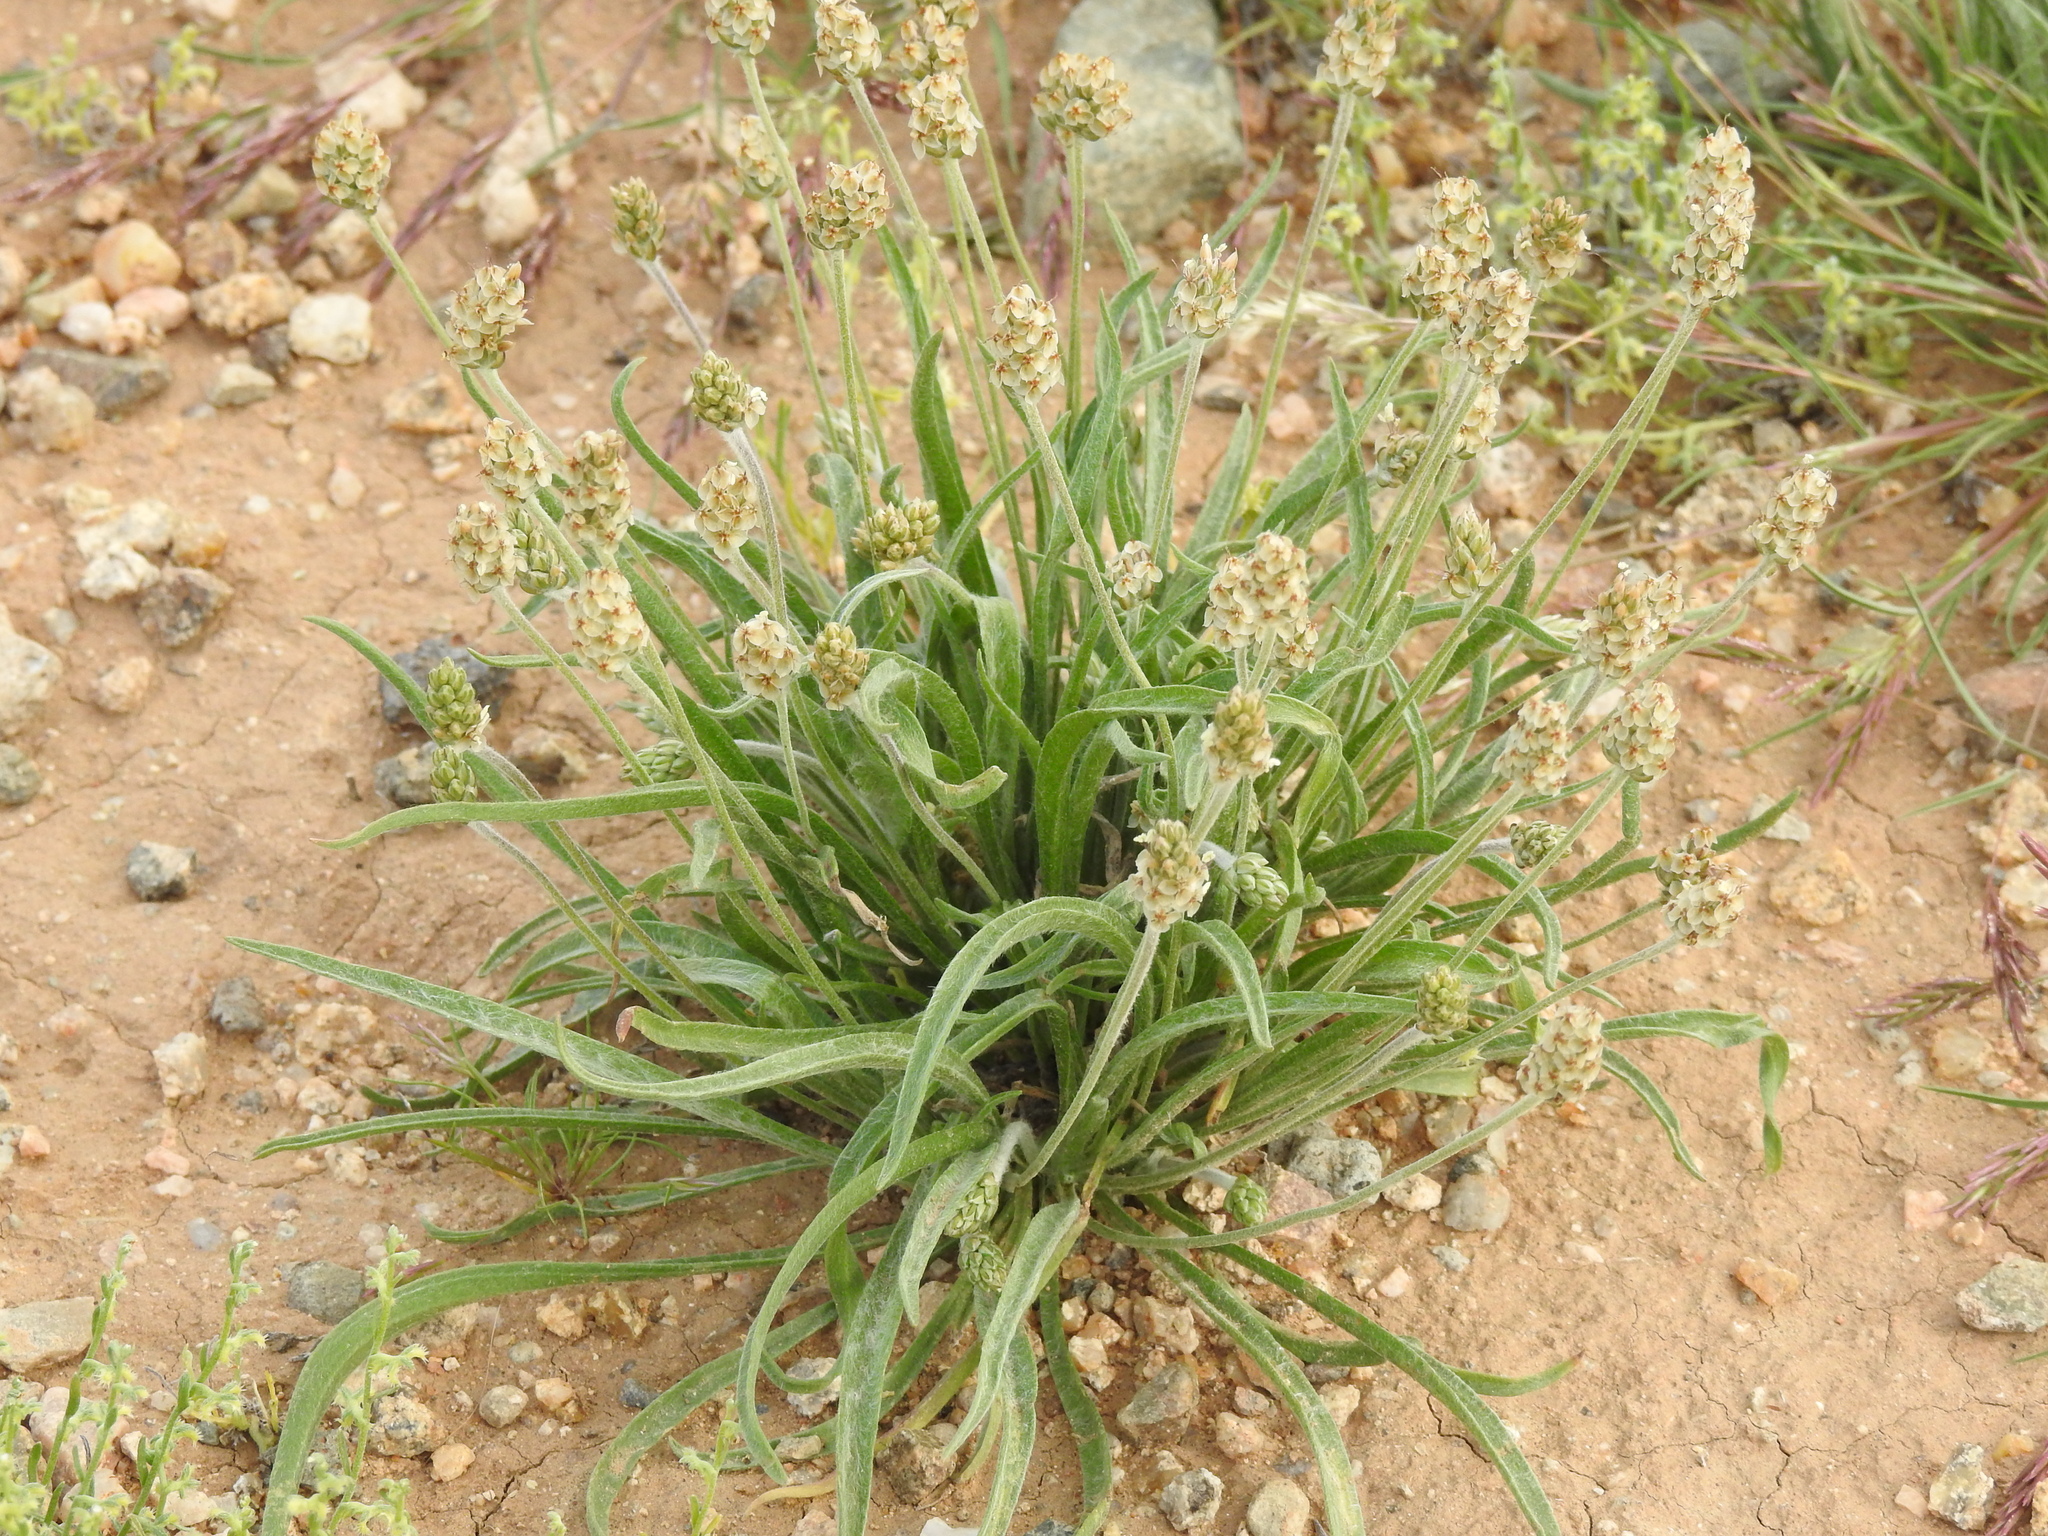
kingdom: Plantae
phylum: Tracheophyta
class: Magnoliopsida
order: Lamiales
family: Plantaginaceae
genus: Plantago
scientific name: Plantago ovata
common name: Blond plantain
